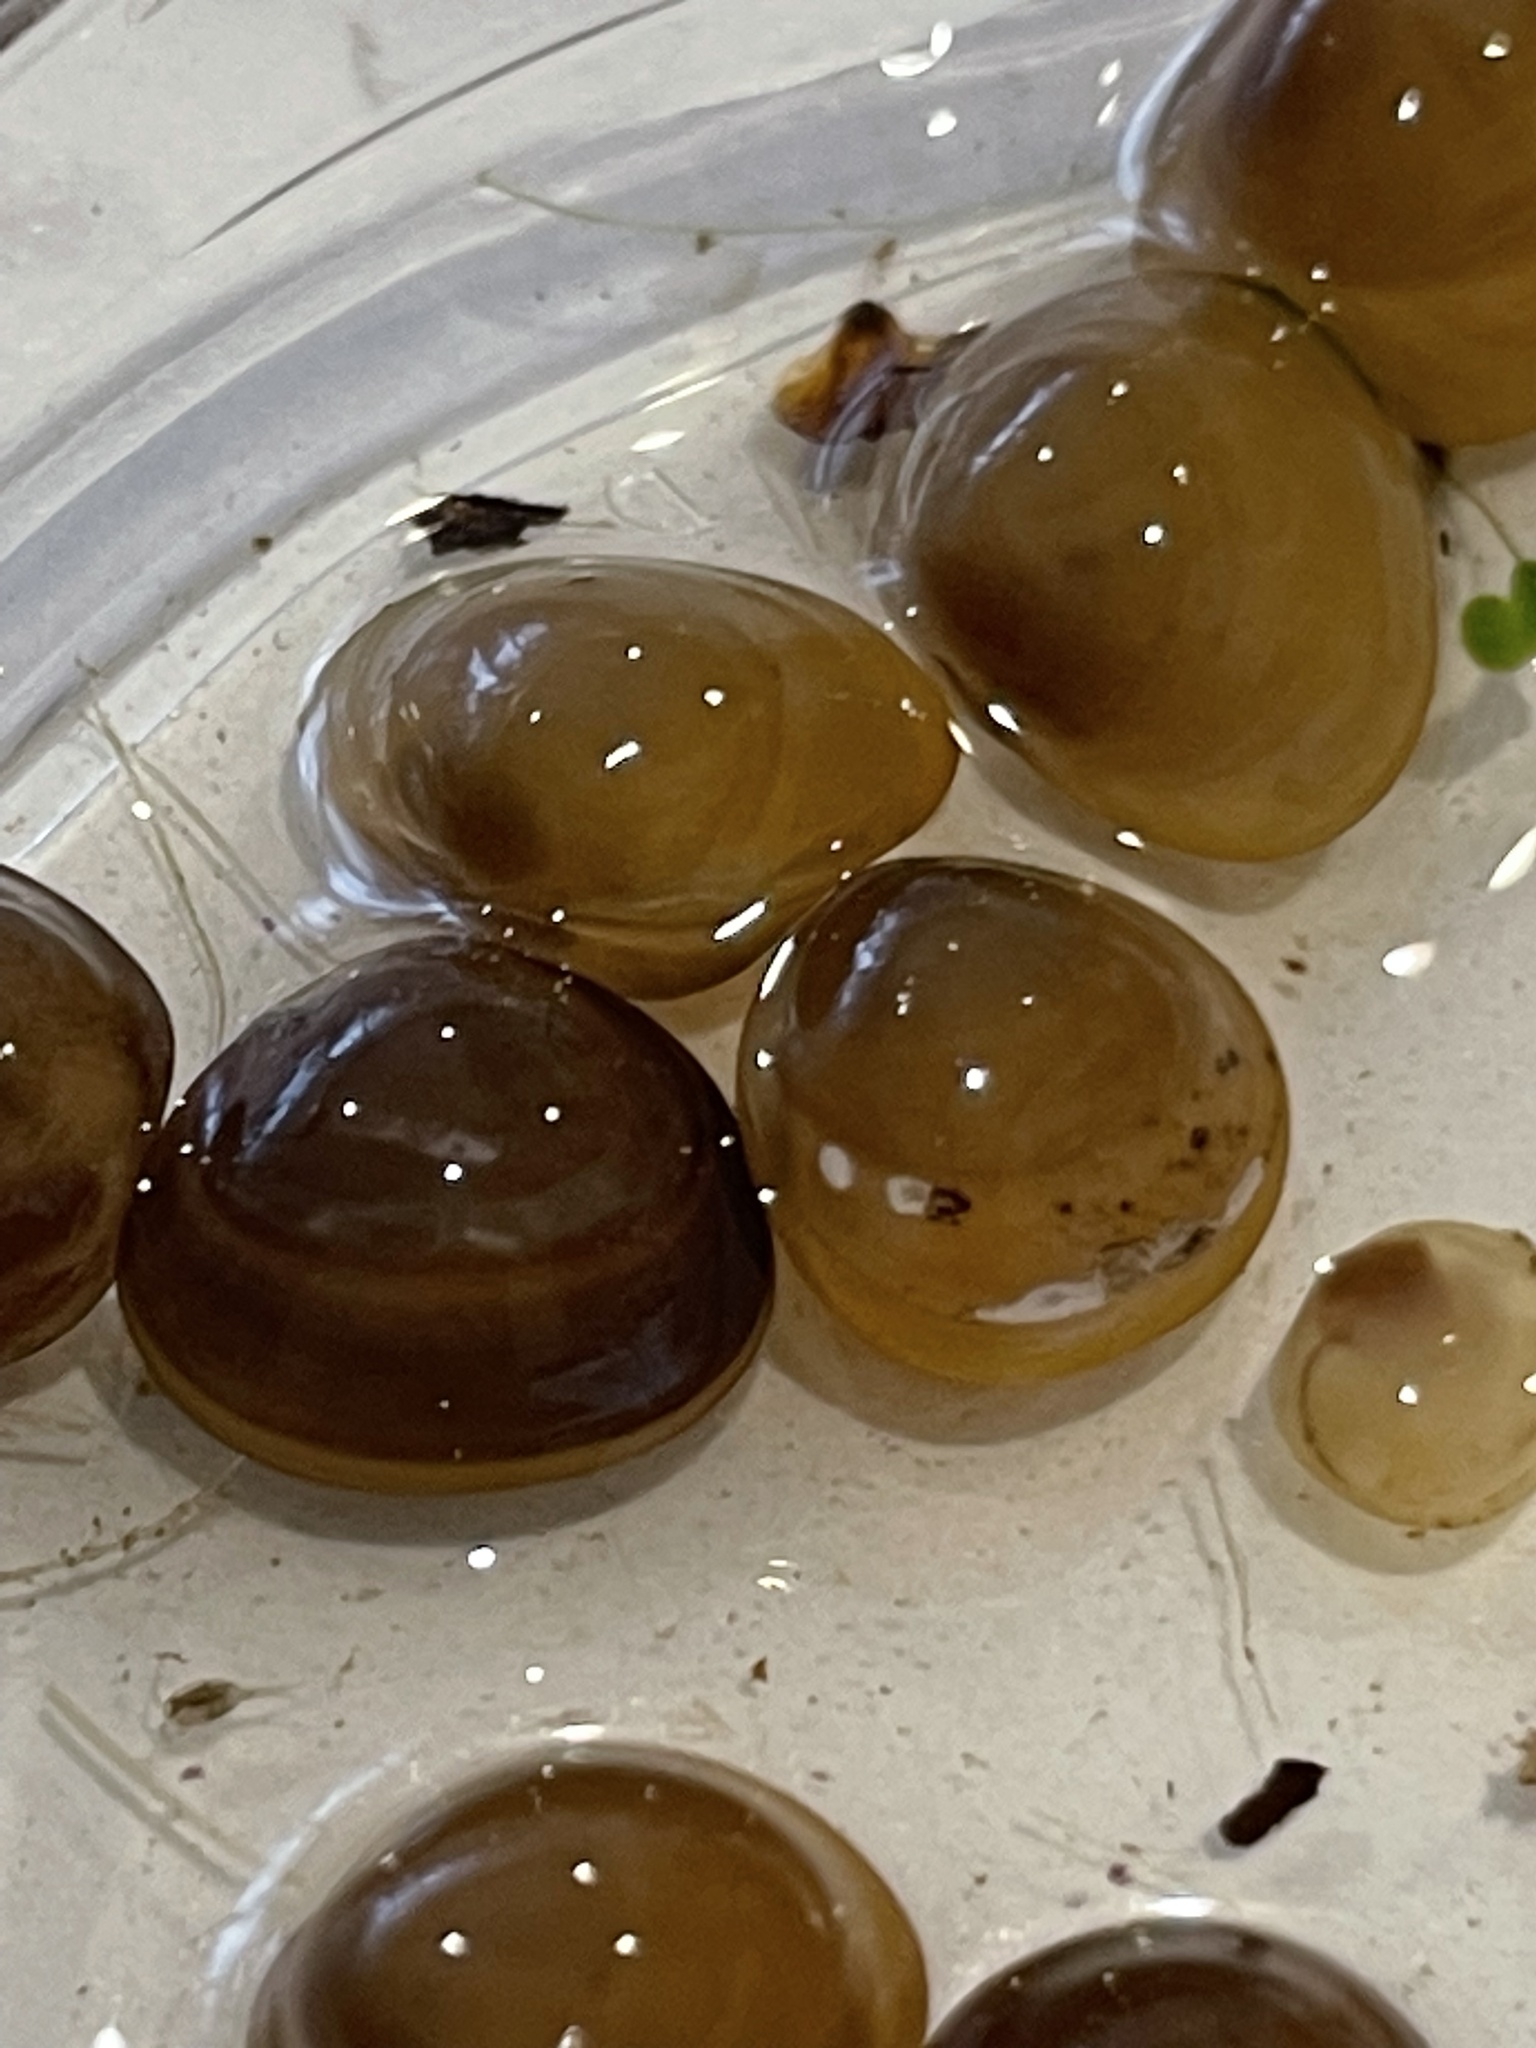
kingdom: Animalia
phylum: Mollusca
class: Bivalvia
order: Sphaeriida
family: Sphaeriidae
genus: Sphaerium
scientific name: Sphaerium corneum
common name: Horny orb mussel
